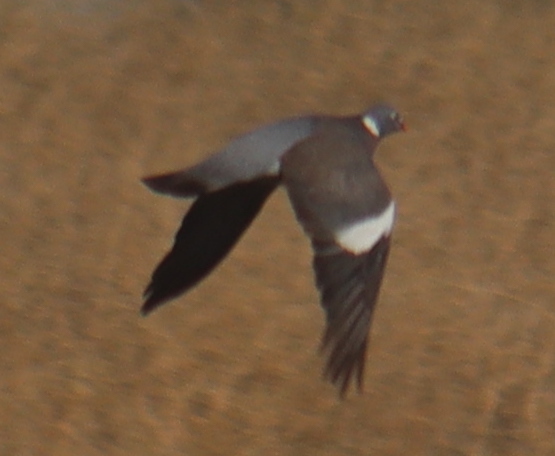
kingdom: Animalia
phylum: Chordata
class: Aves
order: Columbiformes
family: Columbidae
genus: Columba
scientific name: Columba palumbus
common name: Common wood pigeon
